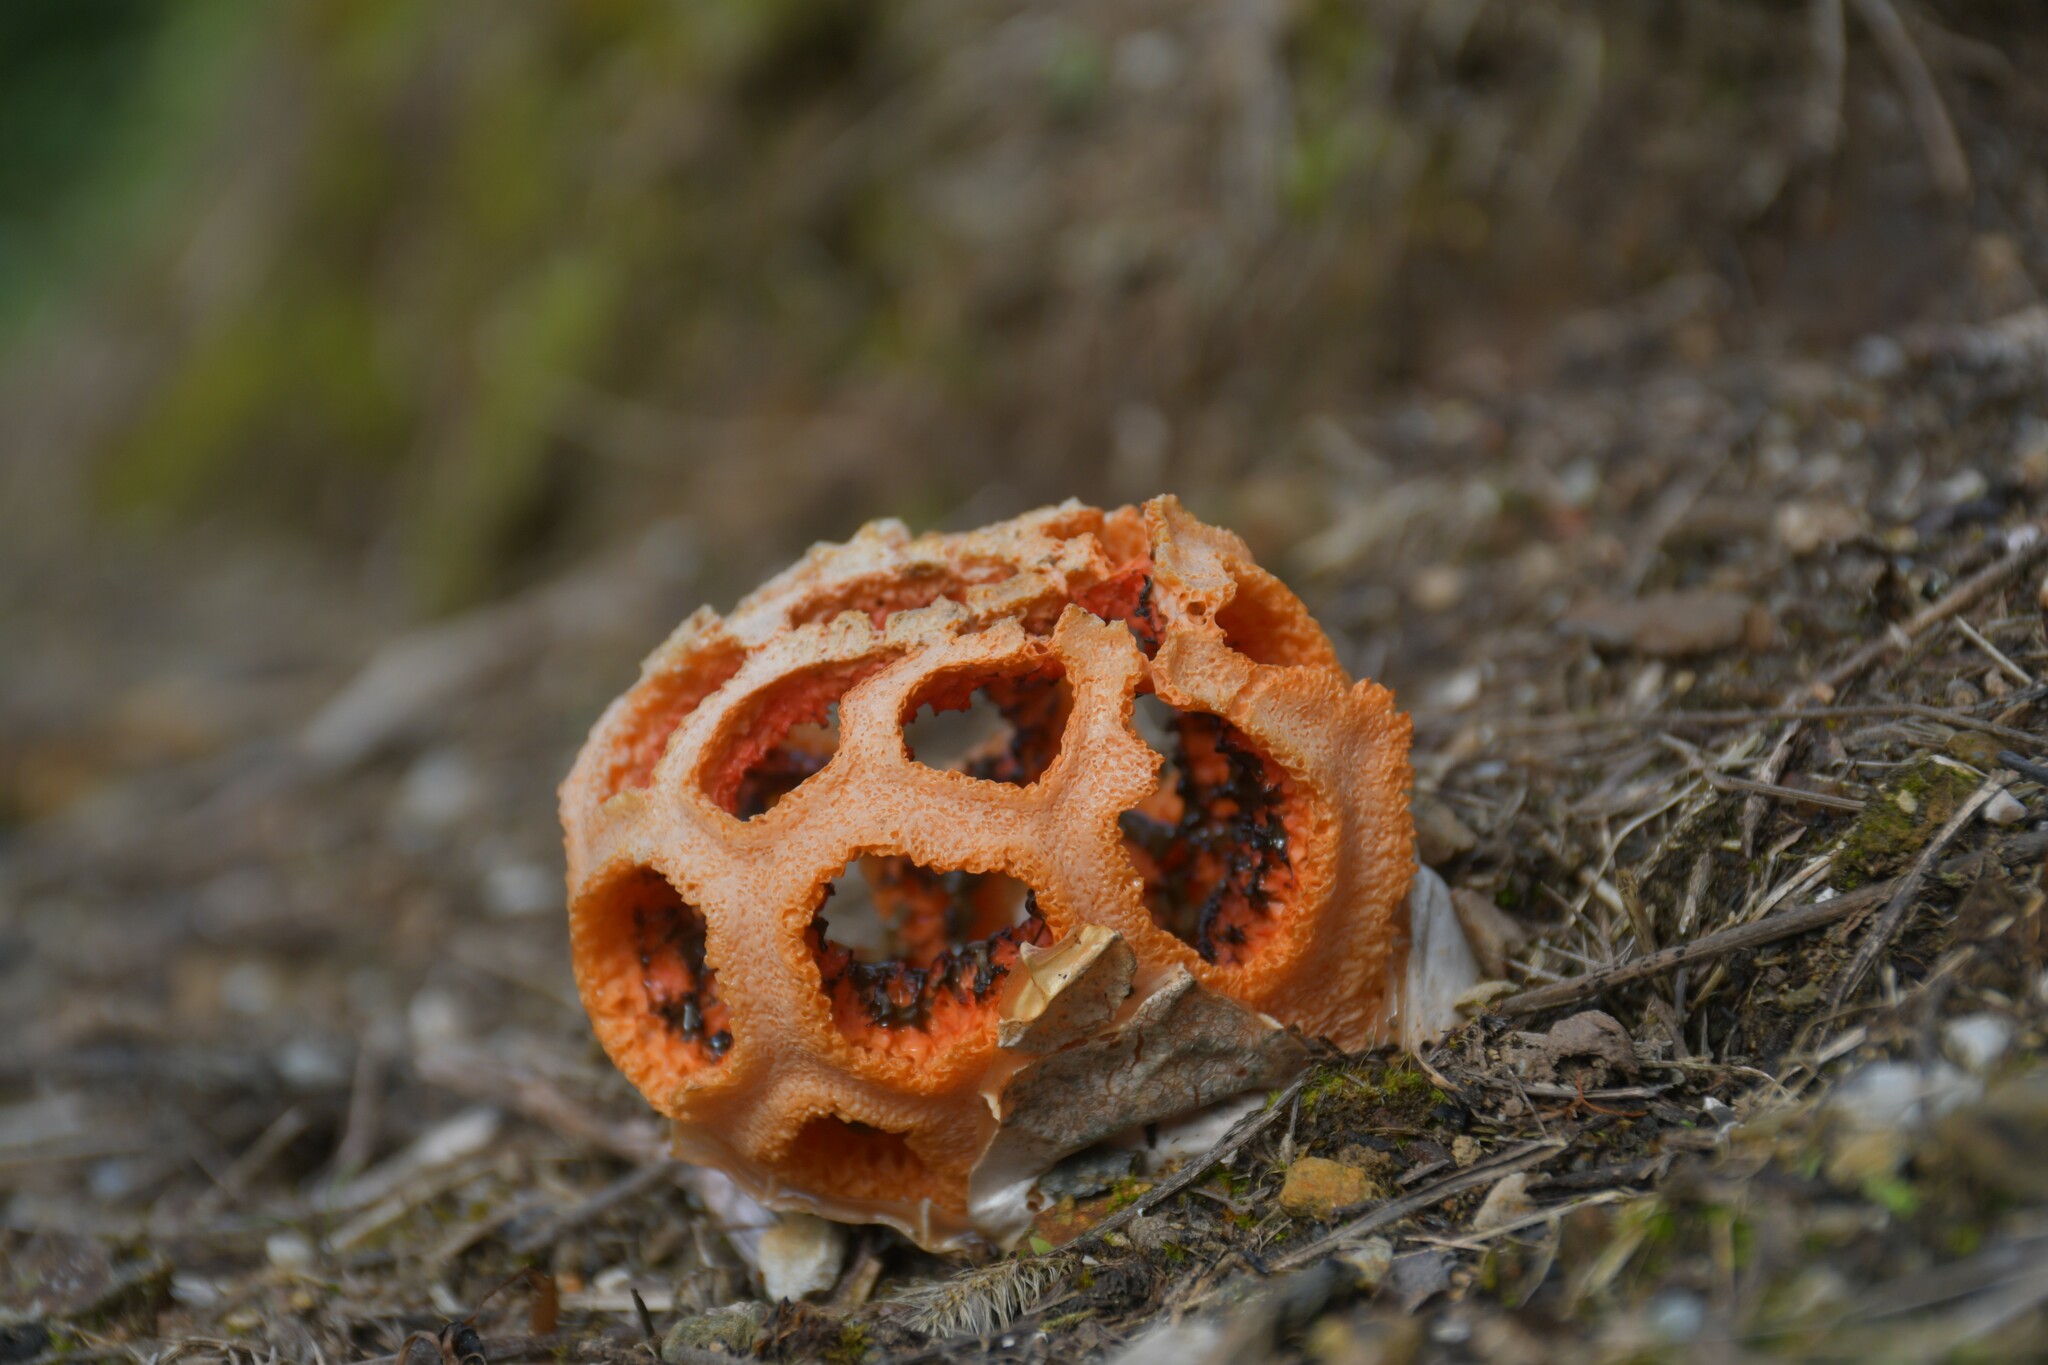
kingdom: Fungi
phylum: Basidiomycota
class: Agaricomycetes
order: Phallales
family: Phallaceae
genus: Clathrus
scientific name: Clathrus ruber
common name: Red cage
